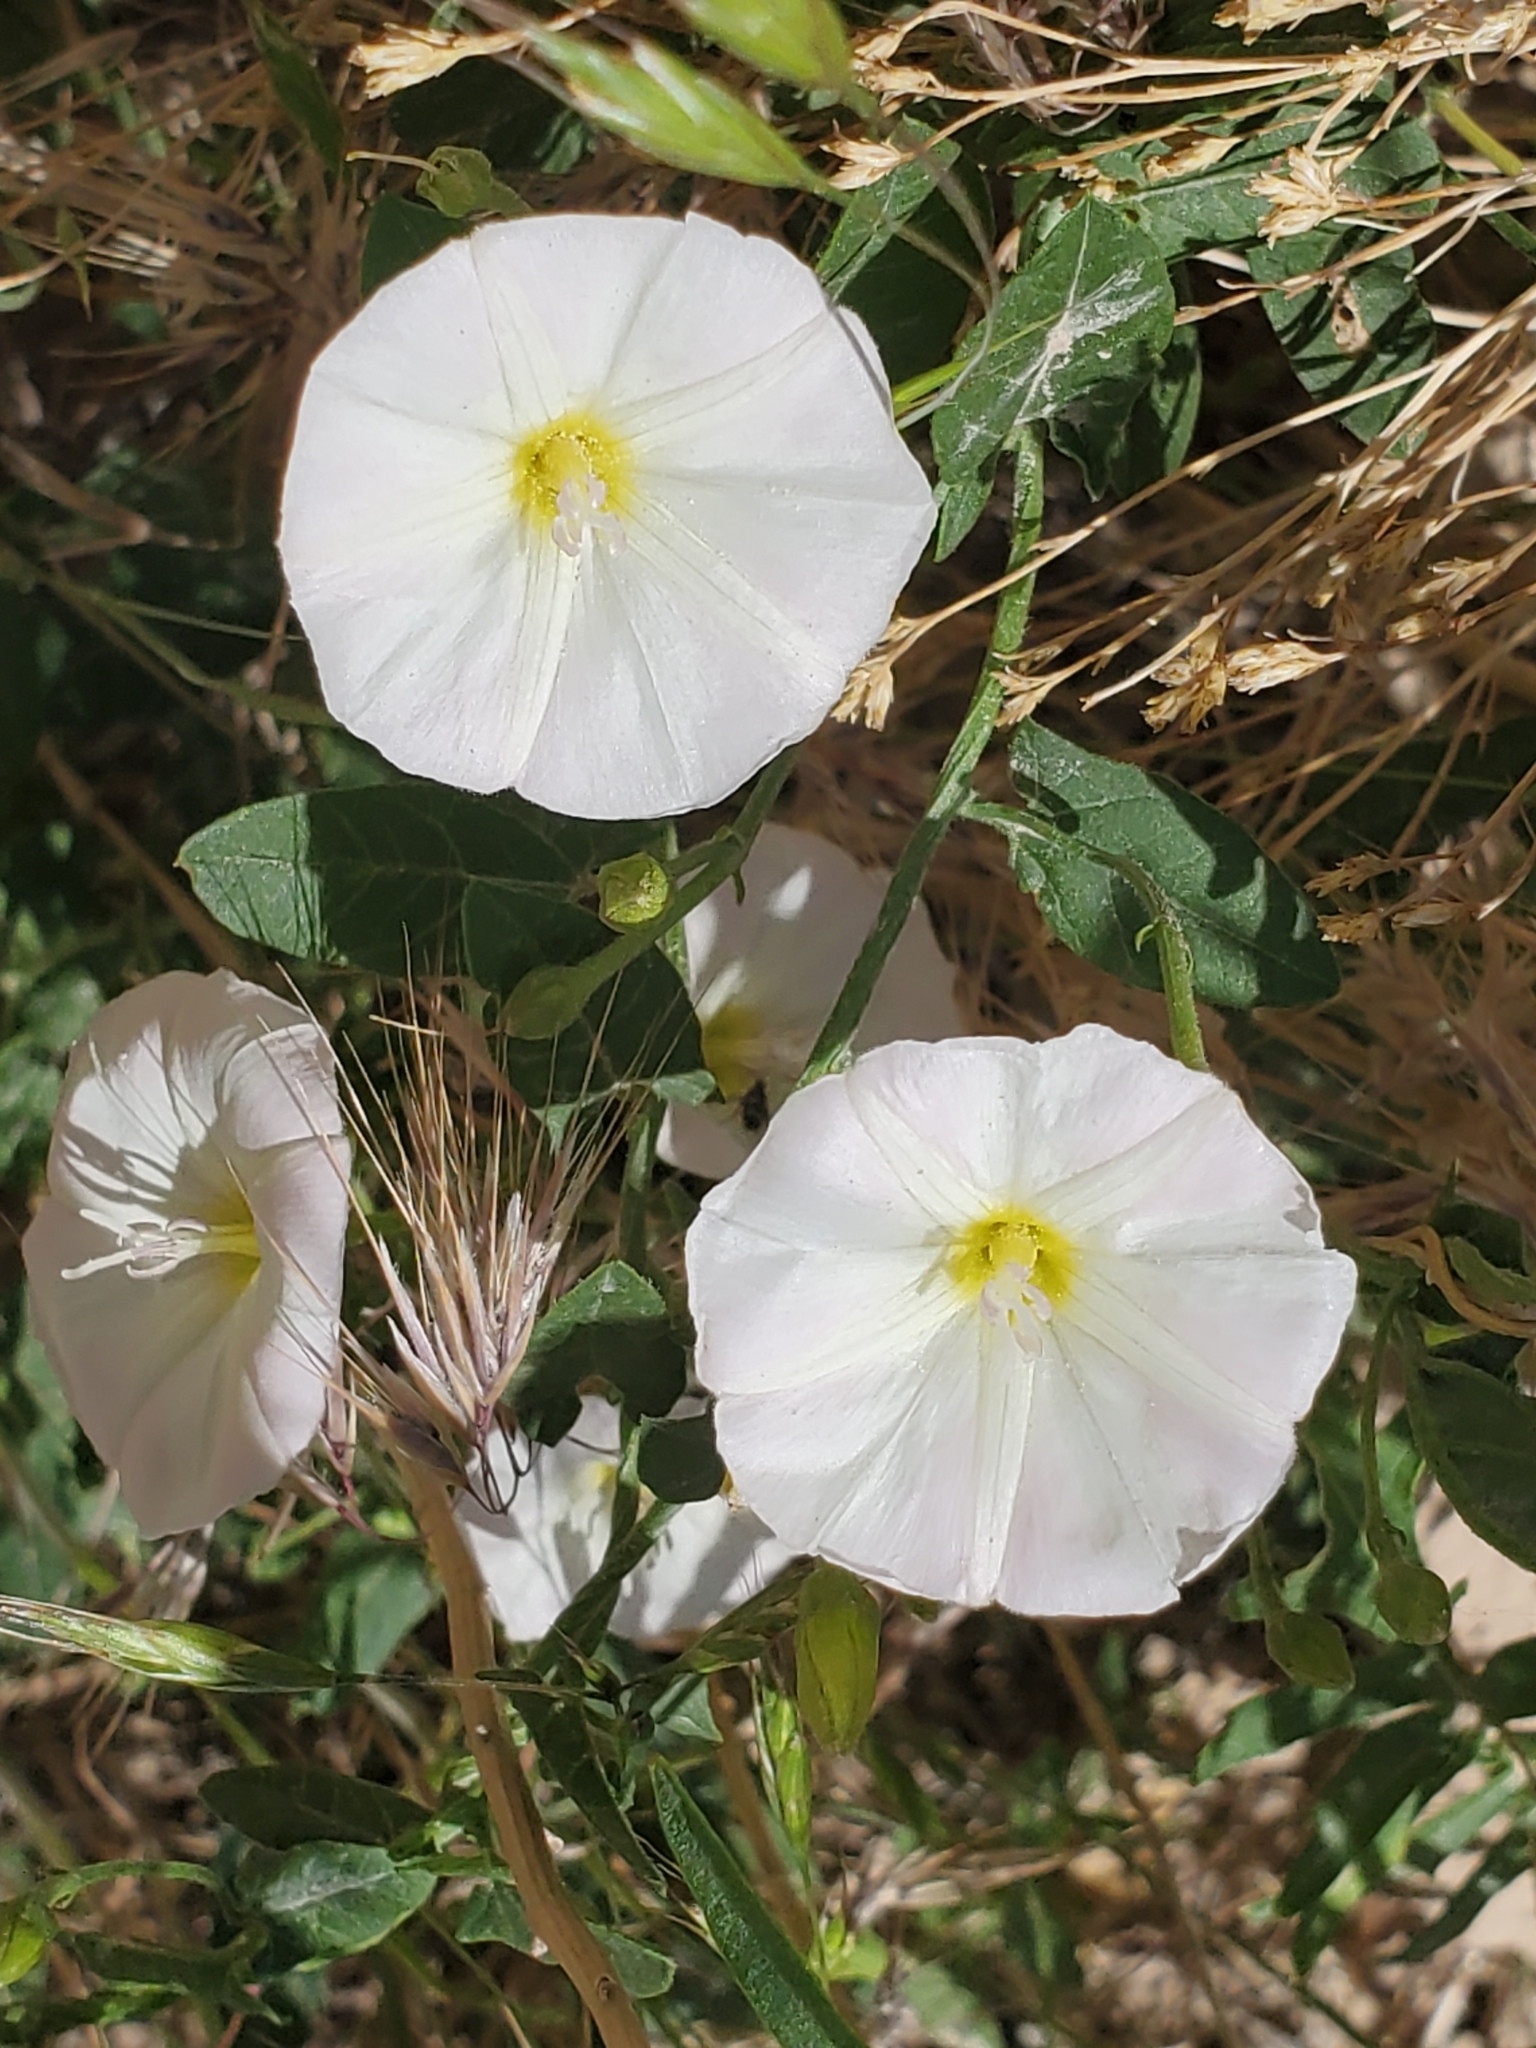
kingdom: Plantae
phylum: Tracheophyta
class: Magnoliopsida
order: Solanales
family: Convolvulaceae
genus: Convolvulus
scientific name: Convolvulus arvensis
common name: Field bindweed
